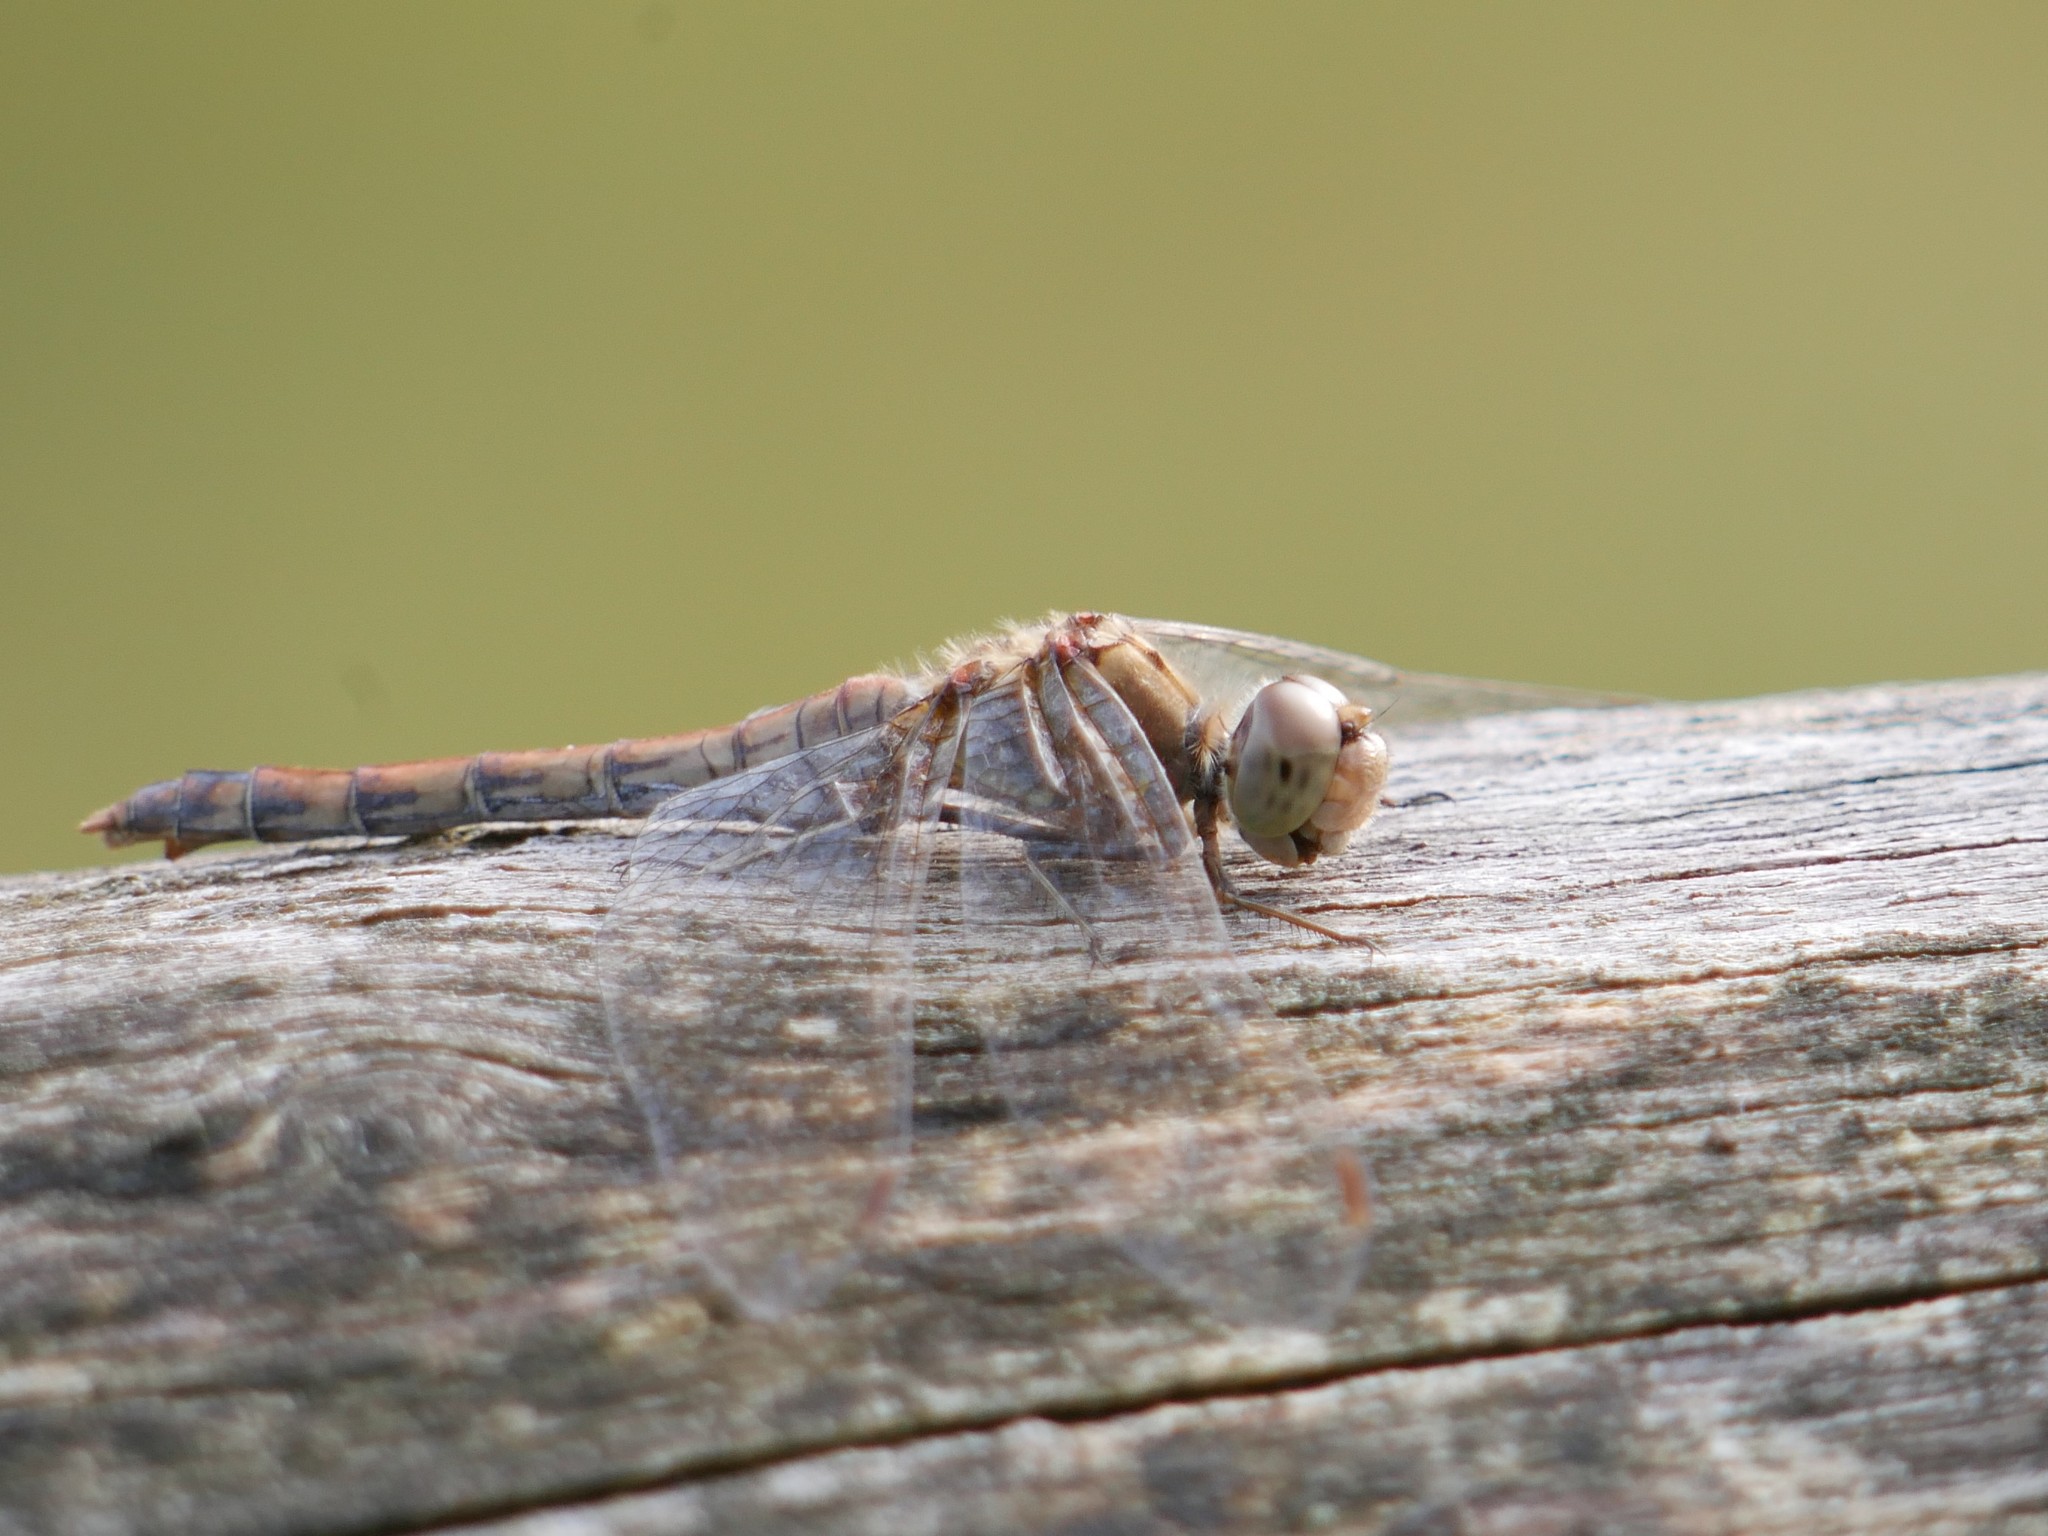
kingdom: Animalia
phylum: Arthropoda
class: Insecta
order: Odonata
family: Libellulidae
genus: Sympetrum
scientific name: Sympetrum striolatum
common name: Common darter
